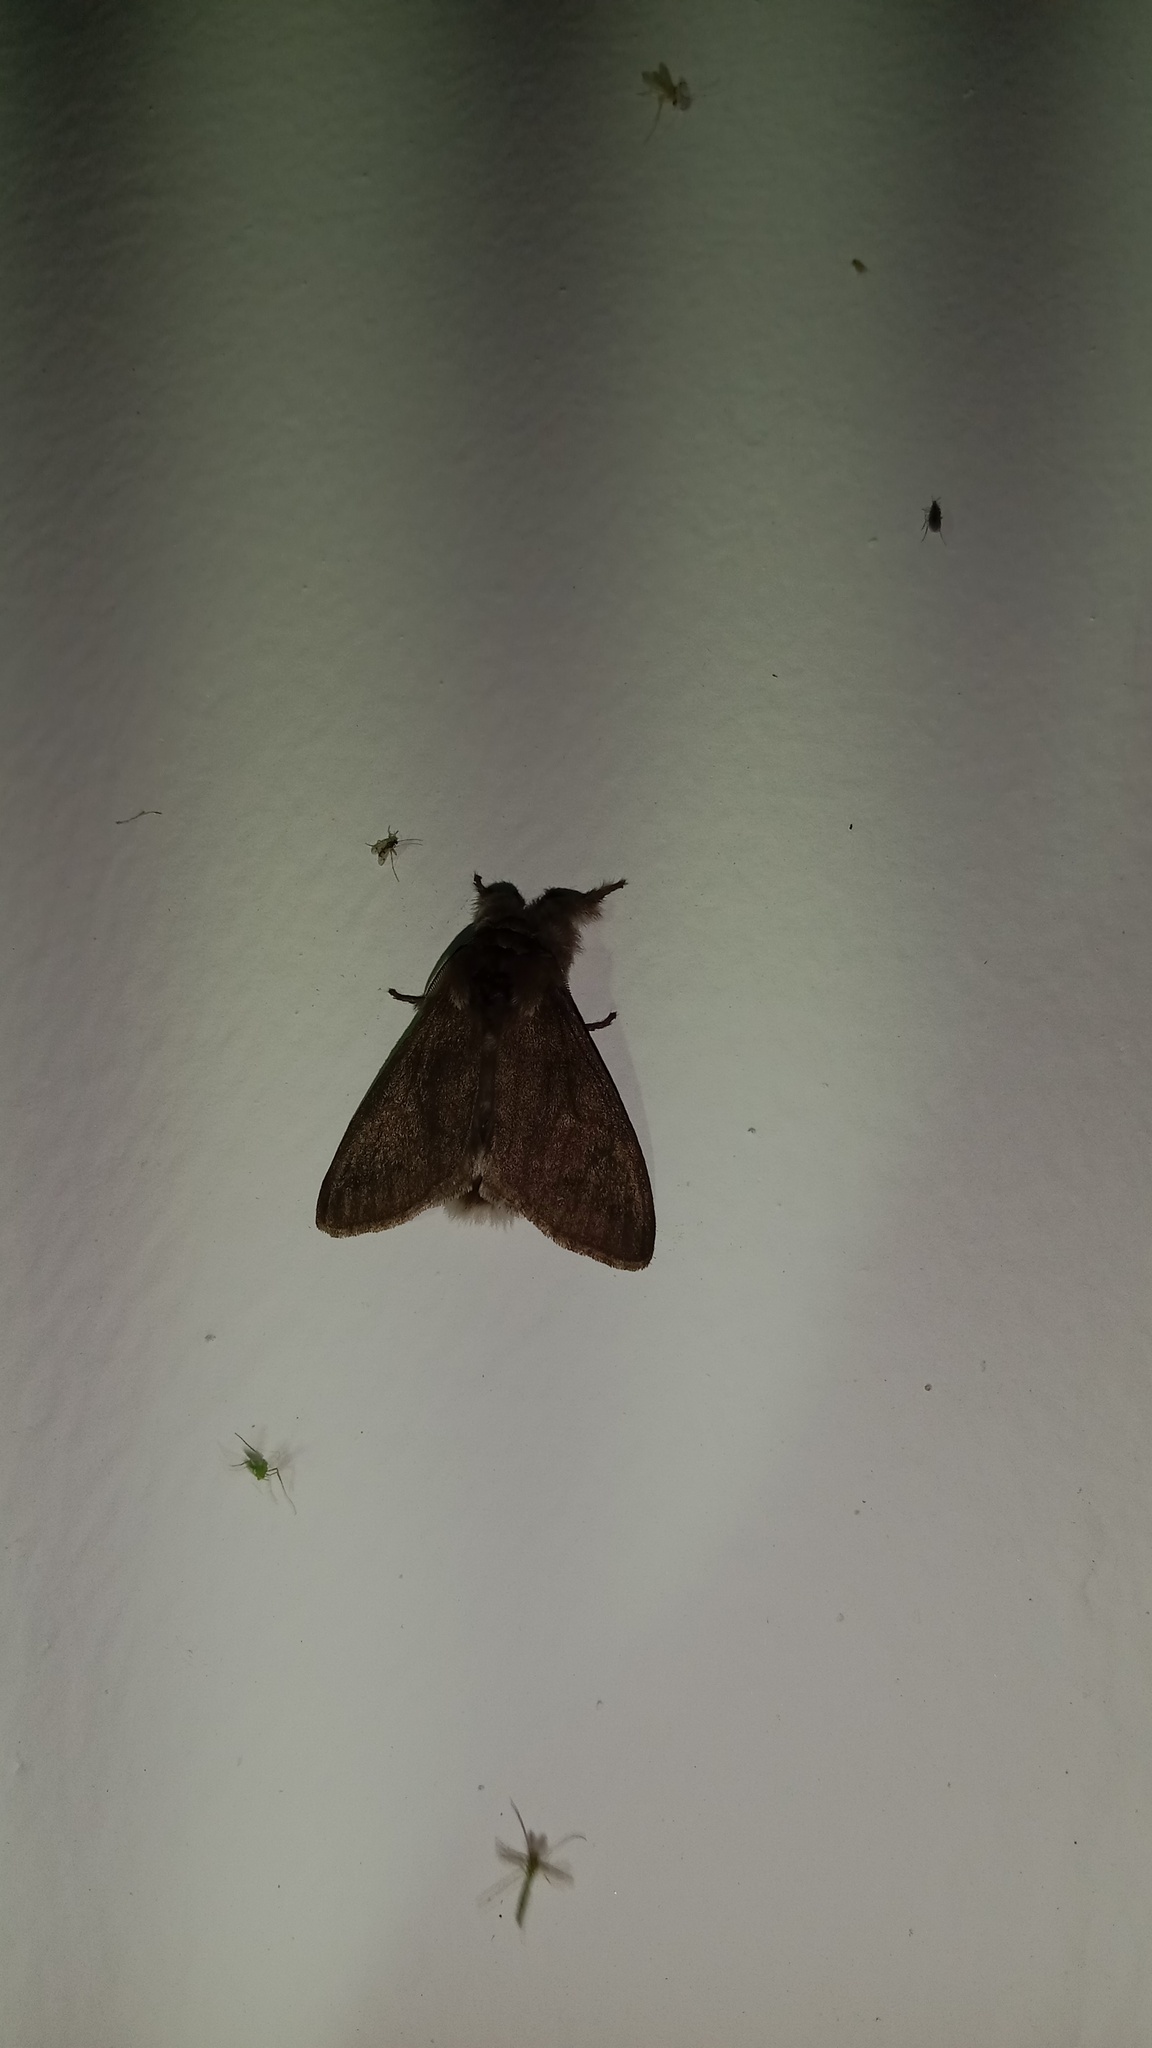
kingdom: Animalia
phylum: Arthropoda
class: Insecta
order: Lepidoptera
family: Erebidae
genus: Calliteara
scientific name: Calliteara pudibunda
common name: Pale tussock
